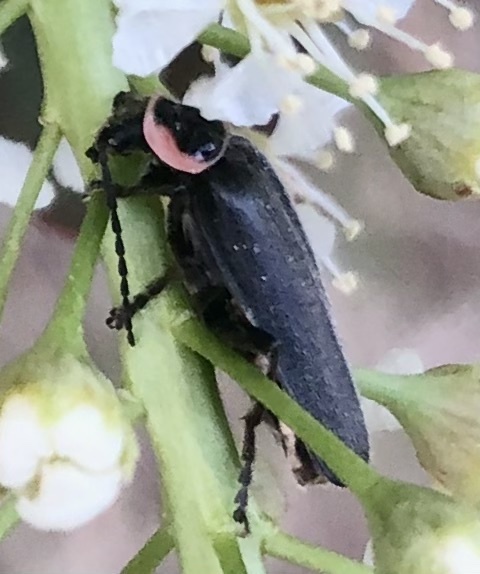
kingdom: Animalia
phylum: Arthropoda
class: Insecta
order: Coleoptera
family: Cantharidae
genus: Atalantycha
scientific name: Atalantycha neglecta
